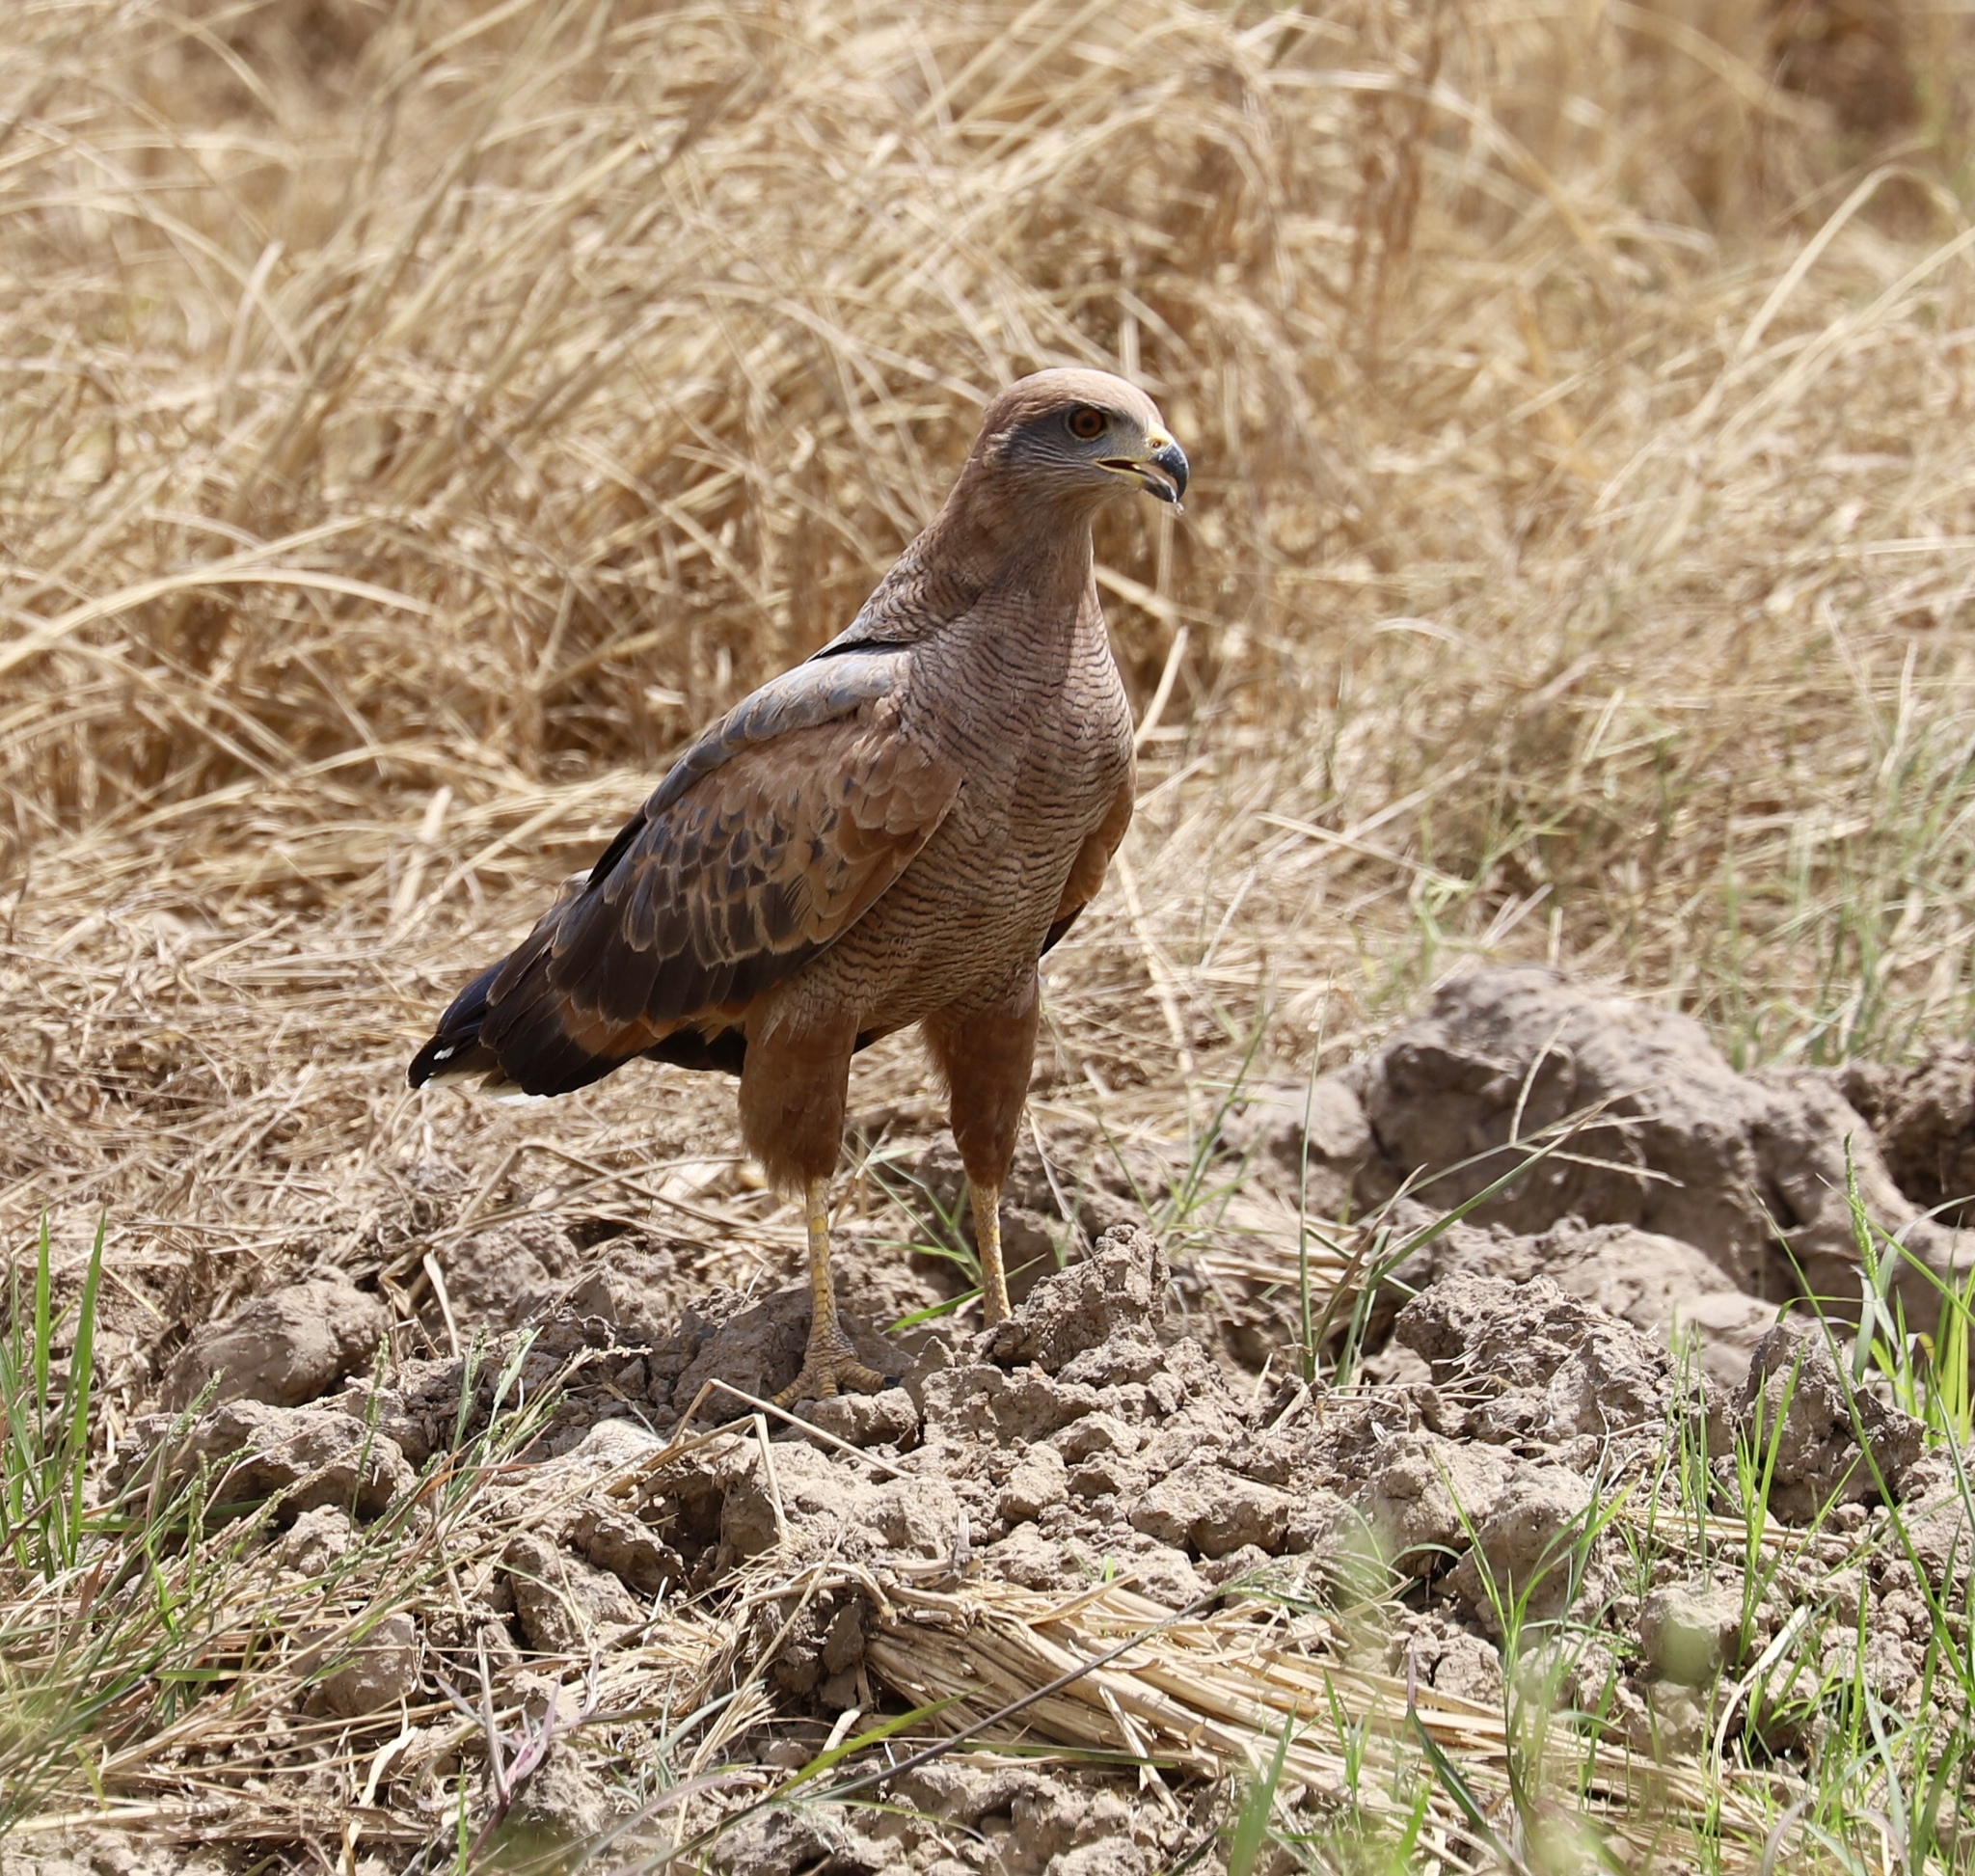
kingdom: Animalia
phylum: Chordata
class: Aves
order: Accipitriformes
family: Accipitridae
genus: Buteogallus
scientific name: Buteogallus meridionalis
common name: Savanna hawk
